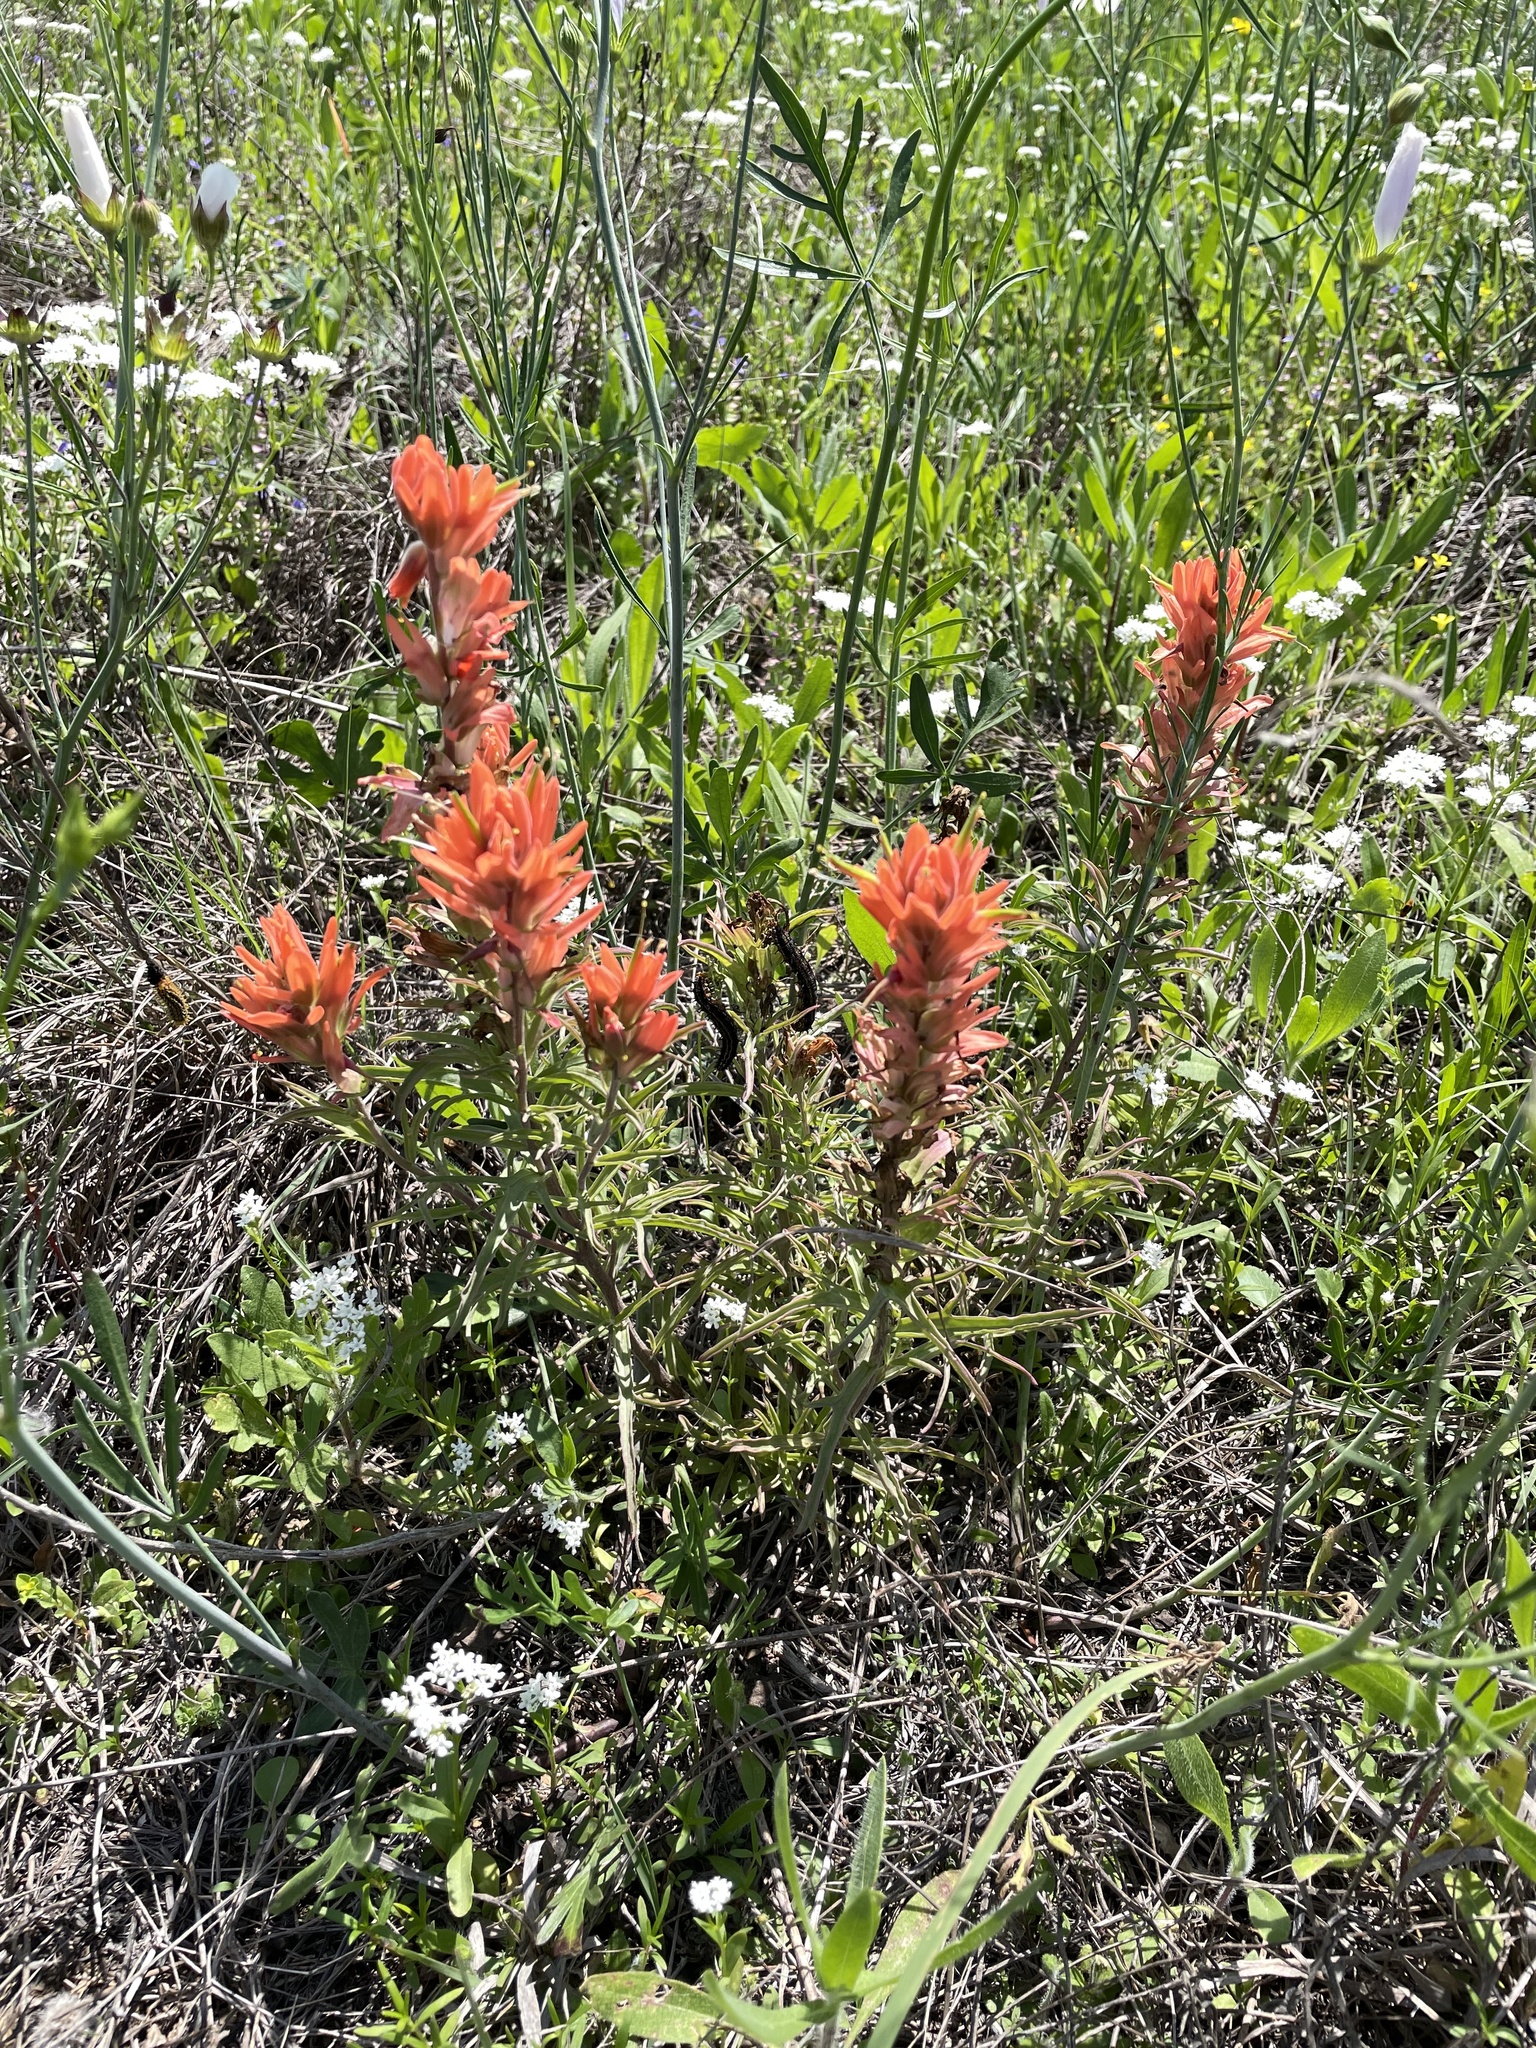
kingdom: Plantae
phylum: Tracheophyta
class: Magnoliopsida
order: Lamiales
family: Orobanchaceae
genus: Castilleja
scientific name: Castilleja lindheimeri
